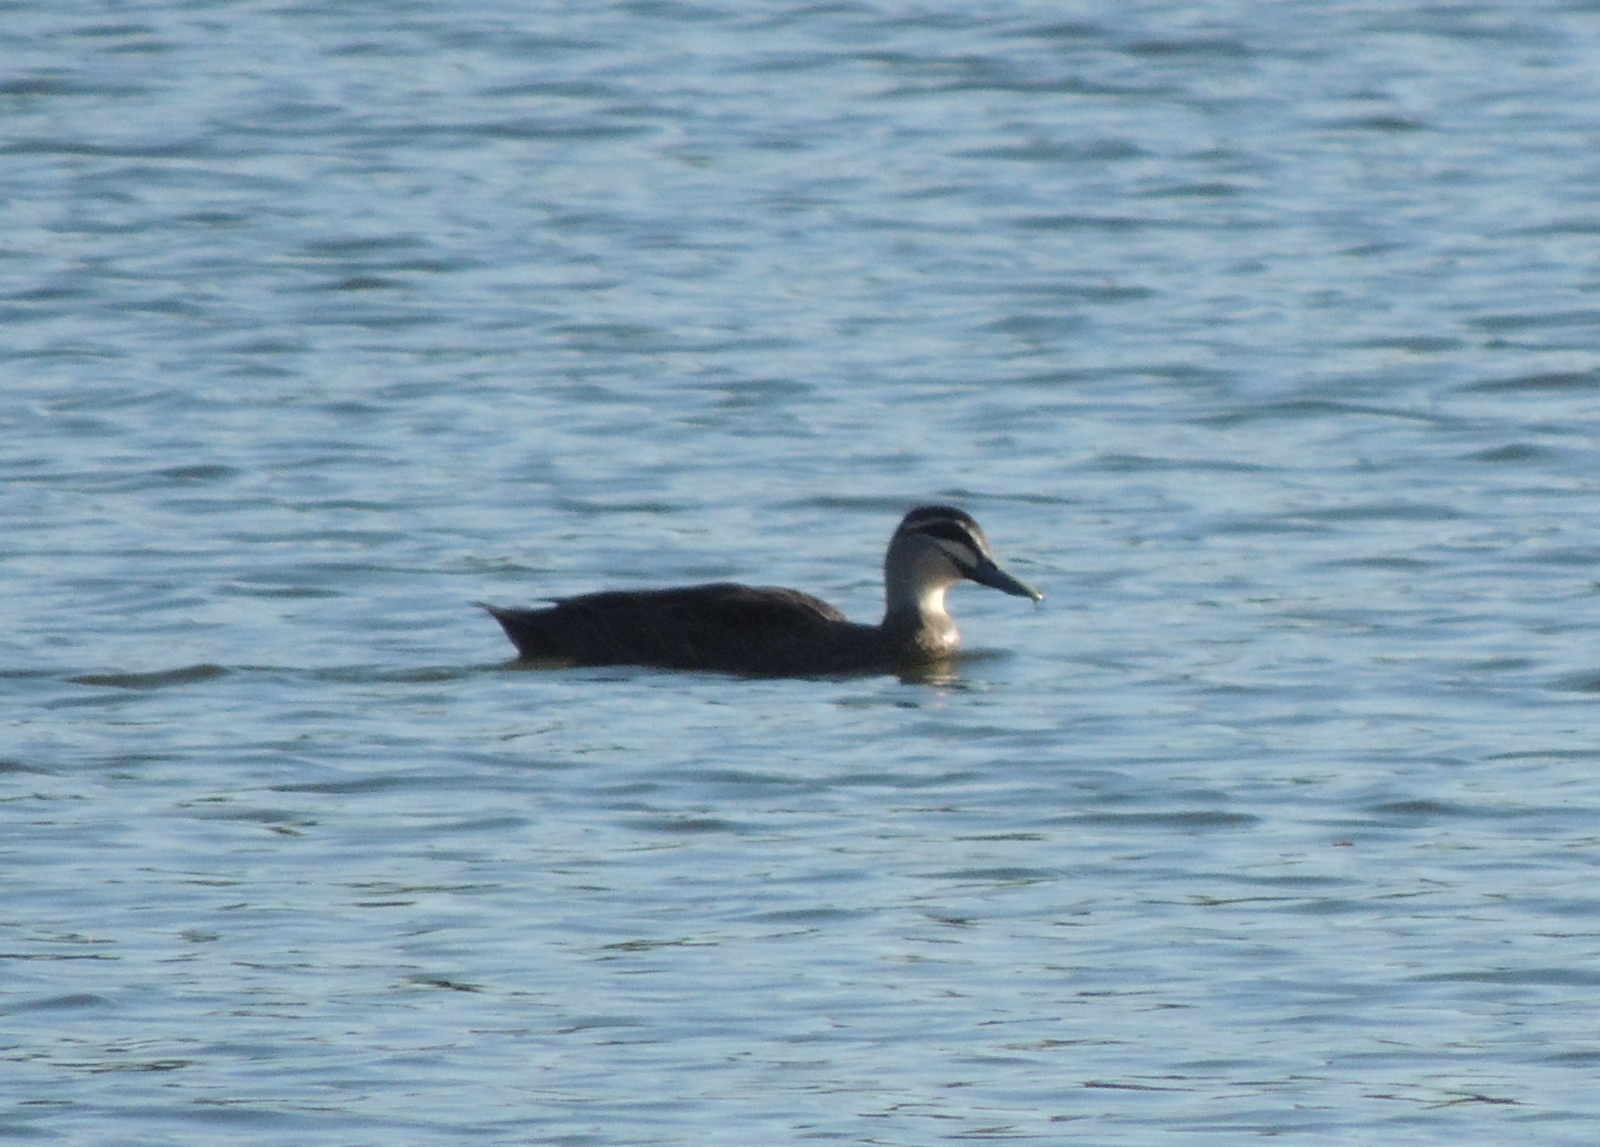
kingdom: Animalia
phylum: Chordata
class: Aves
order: Anseriformes
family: Anatidae
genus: Anas
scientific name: Anas superciliosa
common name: Pacific black duck
